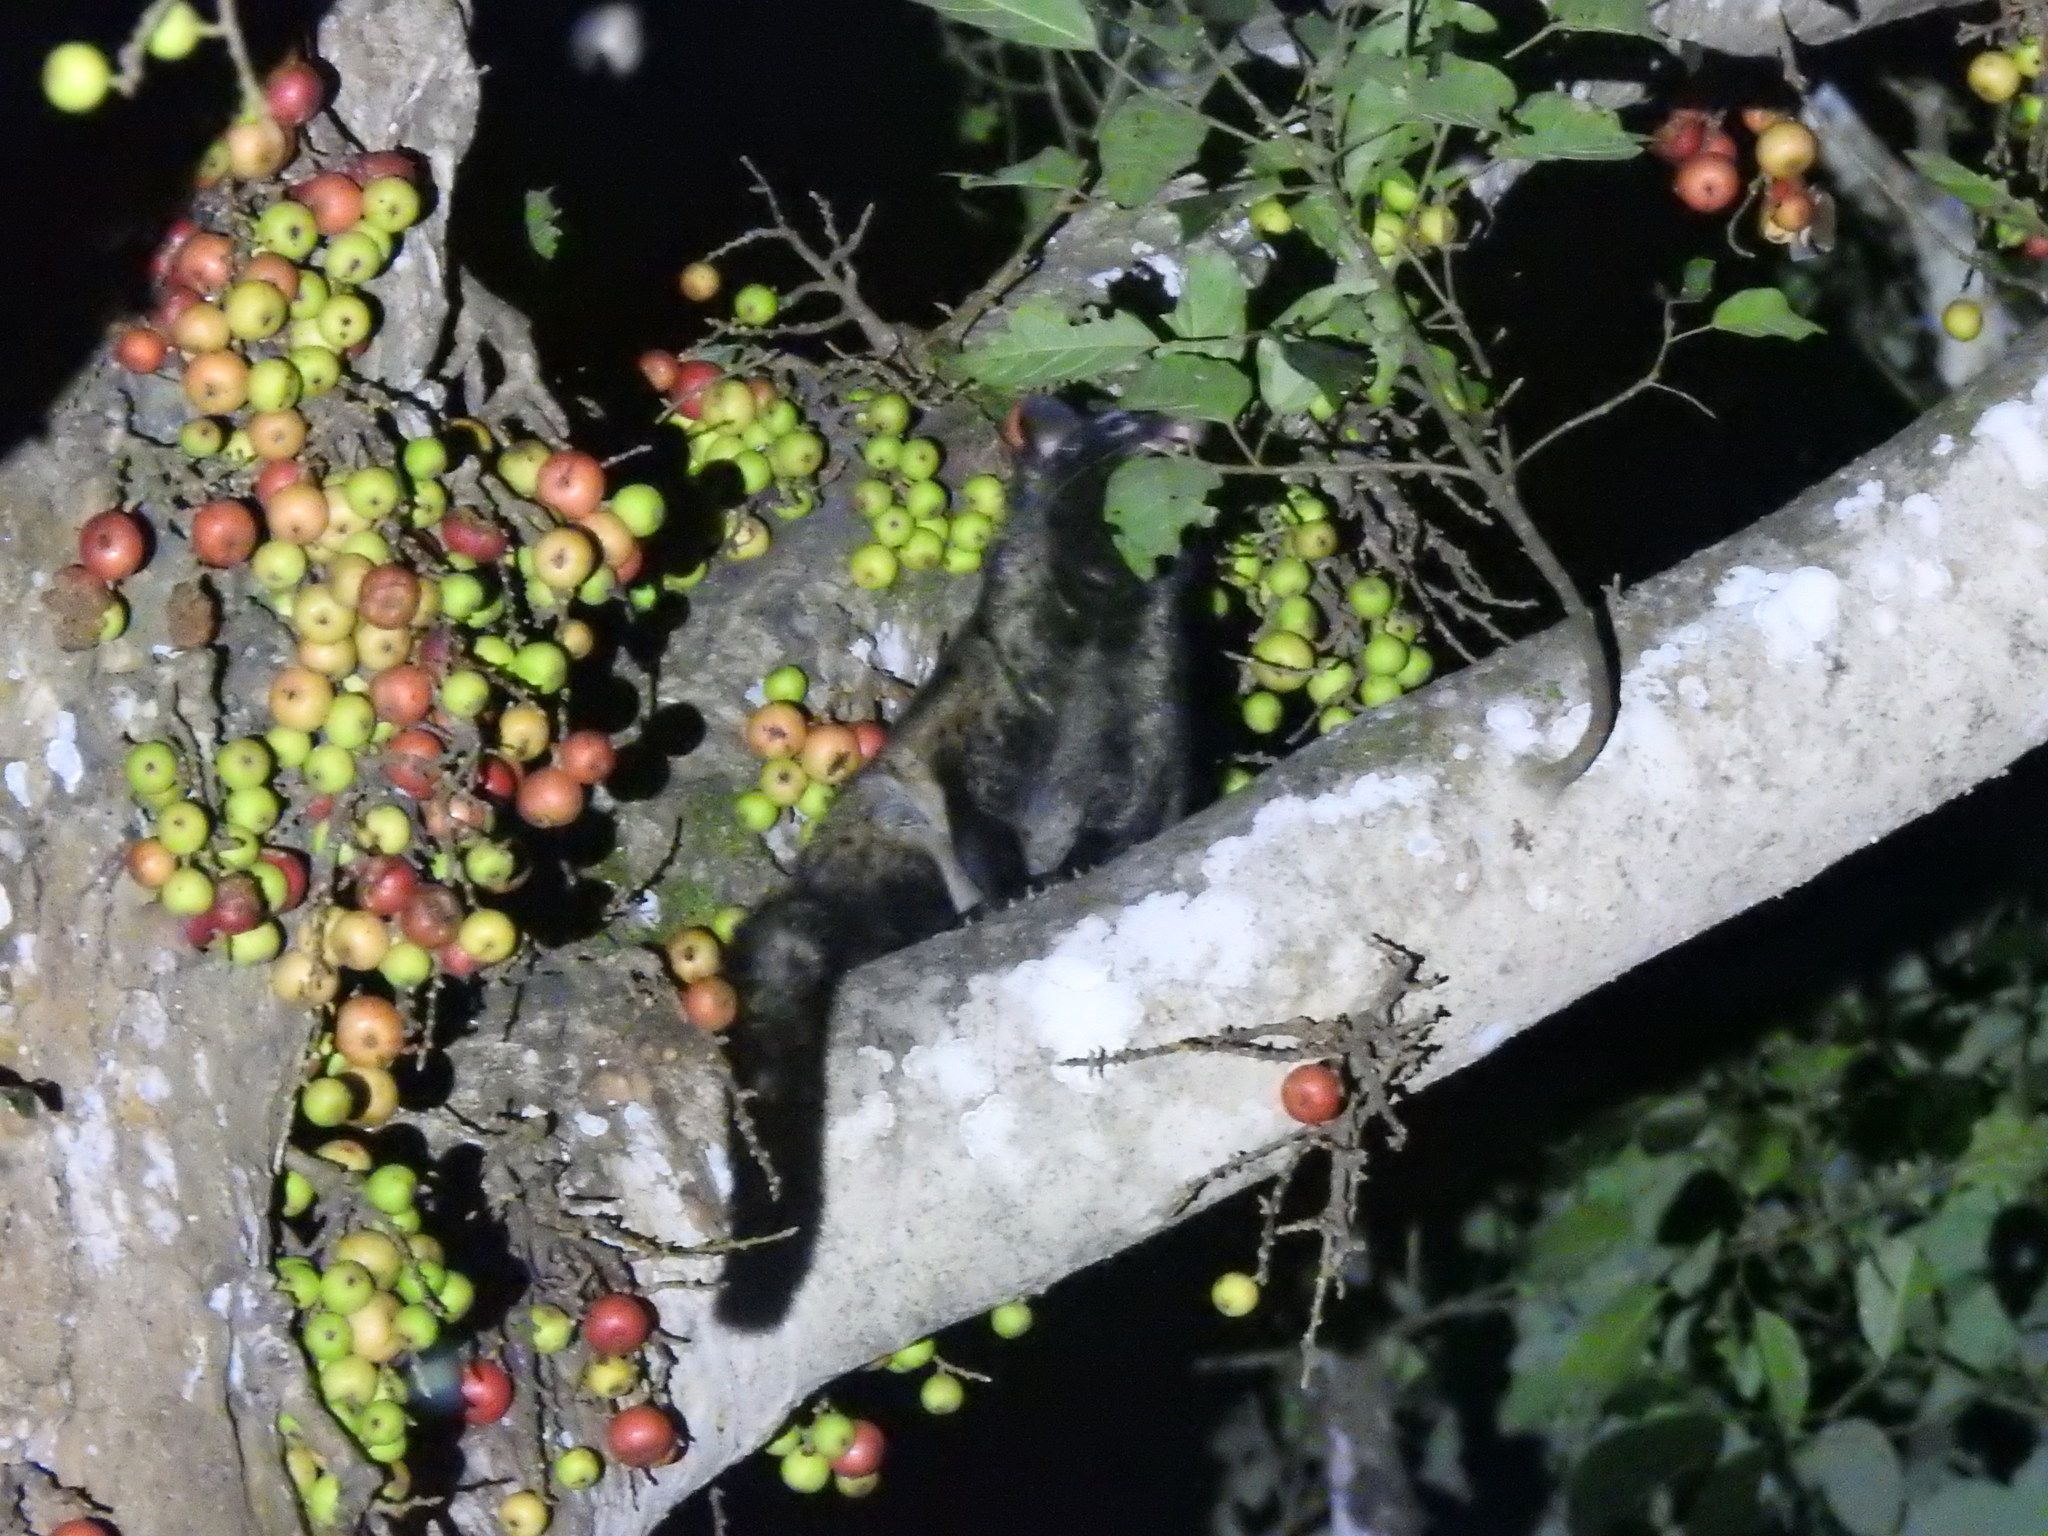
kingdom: Animalia
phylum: Chordata
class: Mammalia
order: Carnivora
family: Viverridae
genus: Paradoxurus
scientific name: Paradoxurus hermaphroditus
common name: Common palm civet
